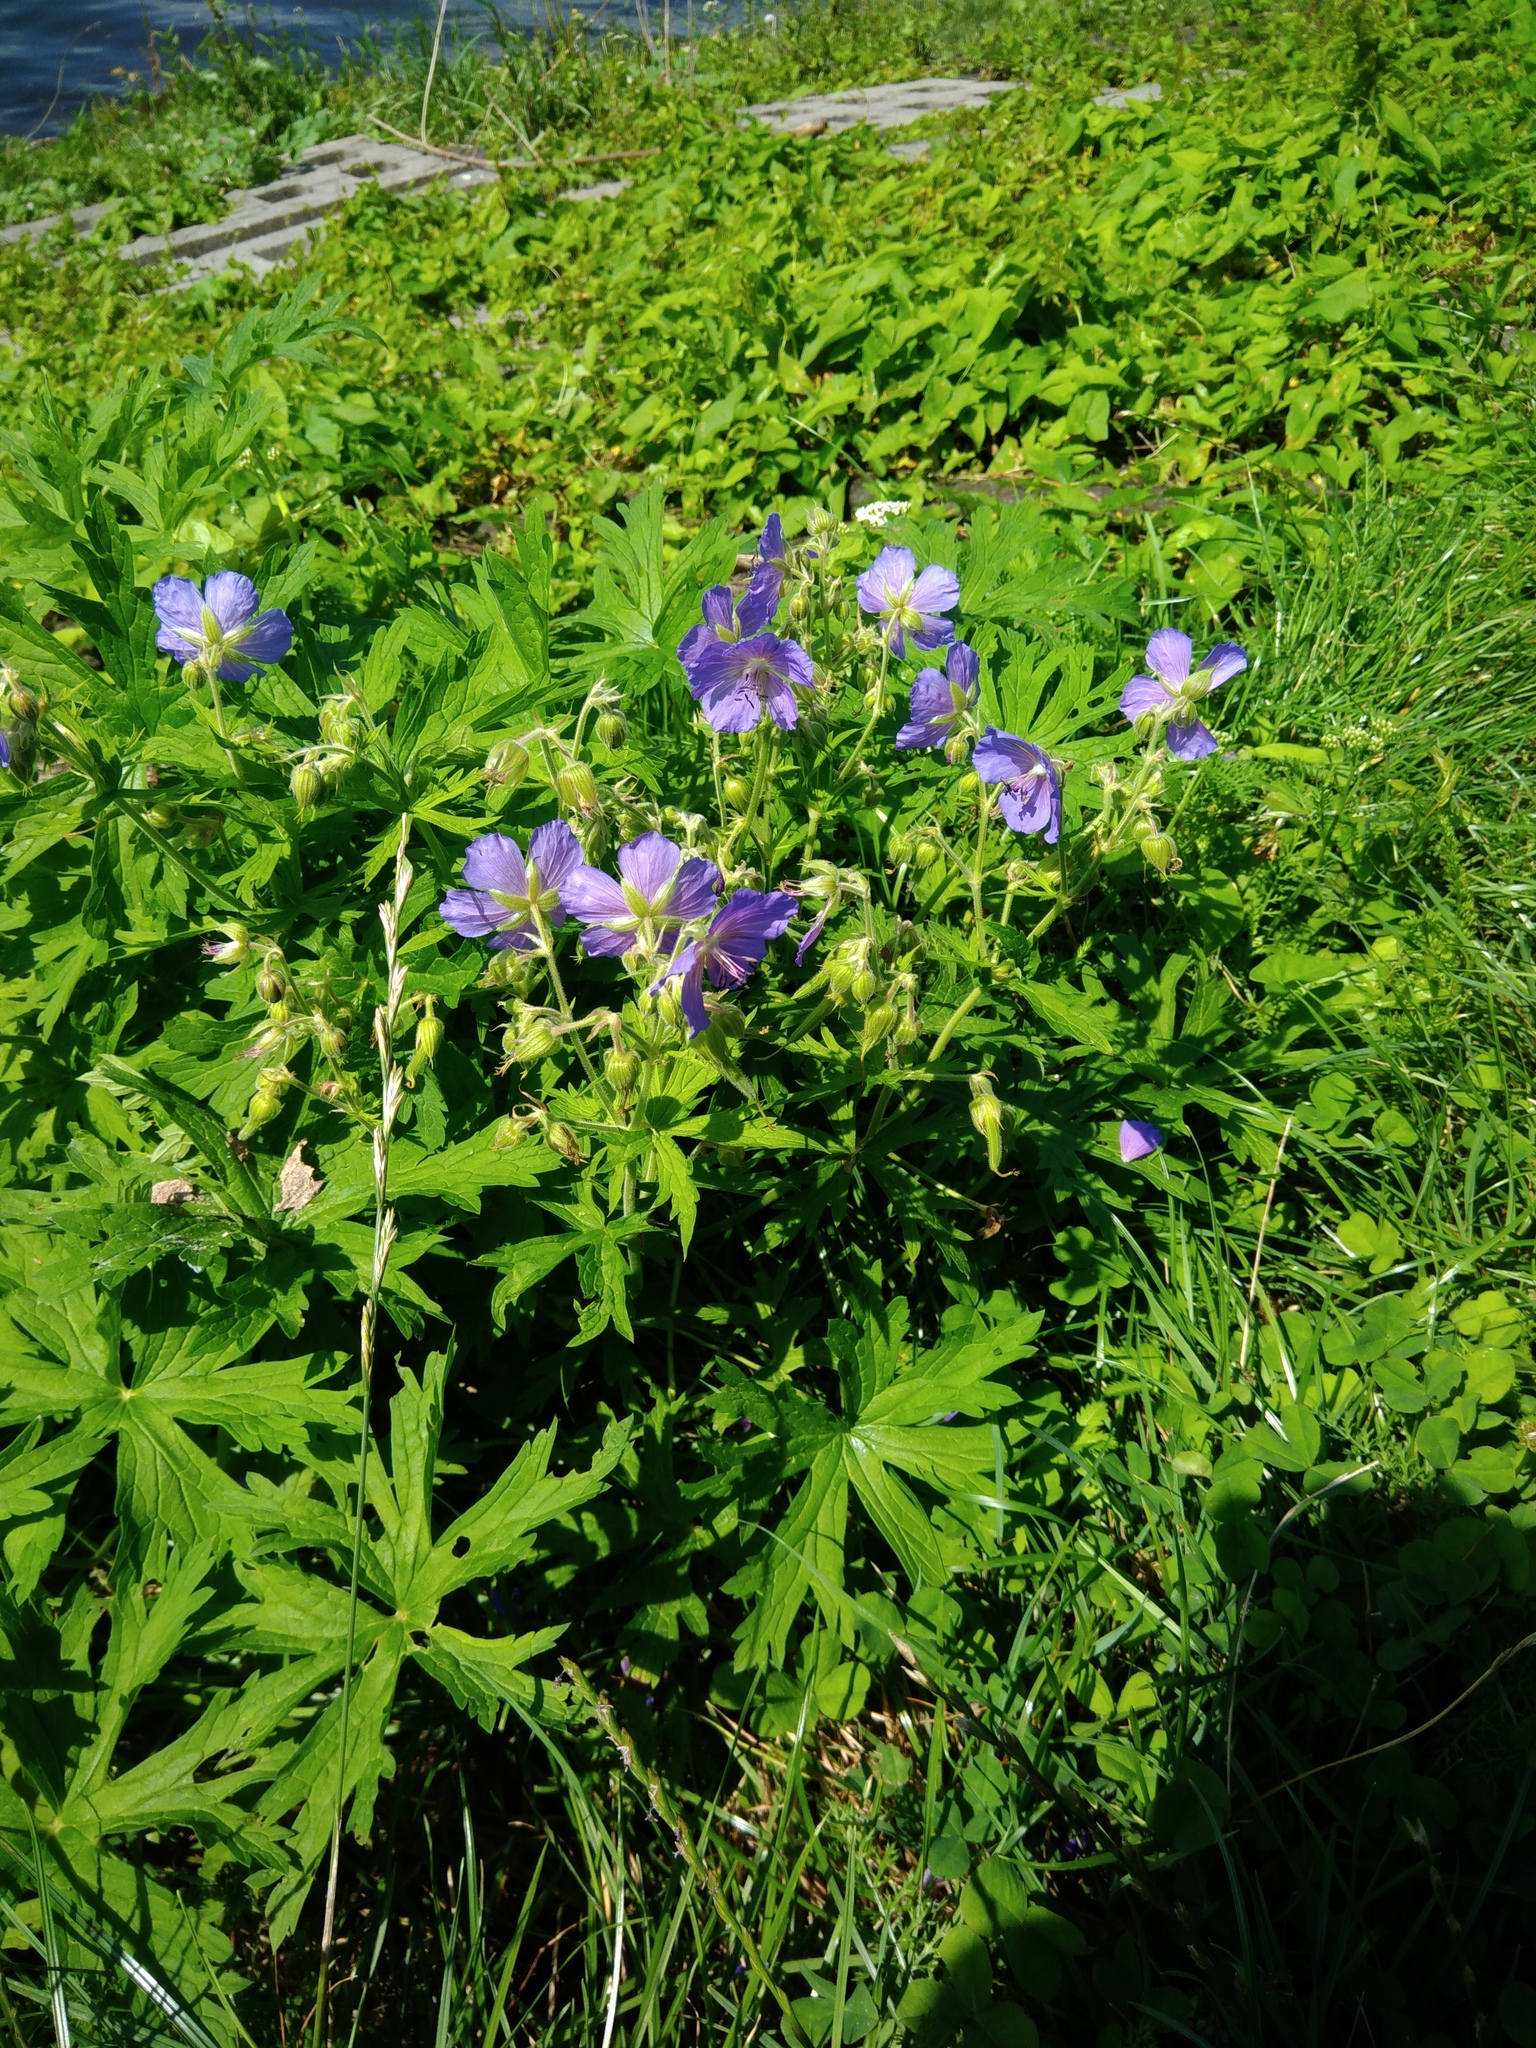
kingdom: Plantae
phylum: Tracheophyta
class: Magnoliopsida
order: Geraniales
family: Geraniaceae
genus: Geranium
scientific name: Geranium pratense
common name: Meadow crane's-bill
